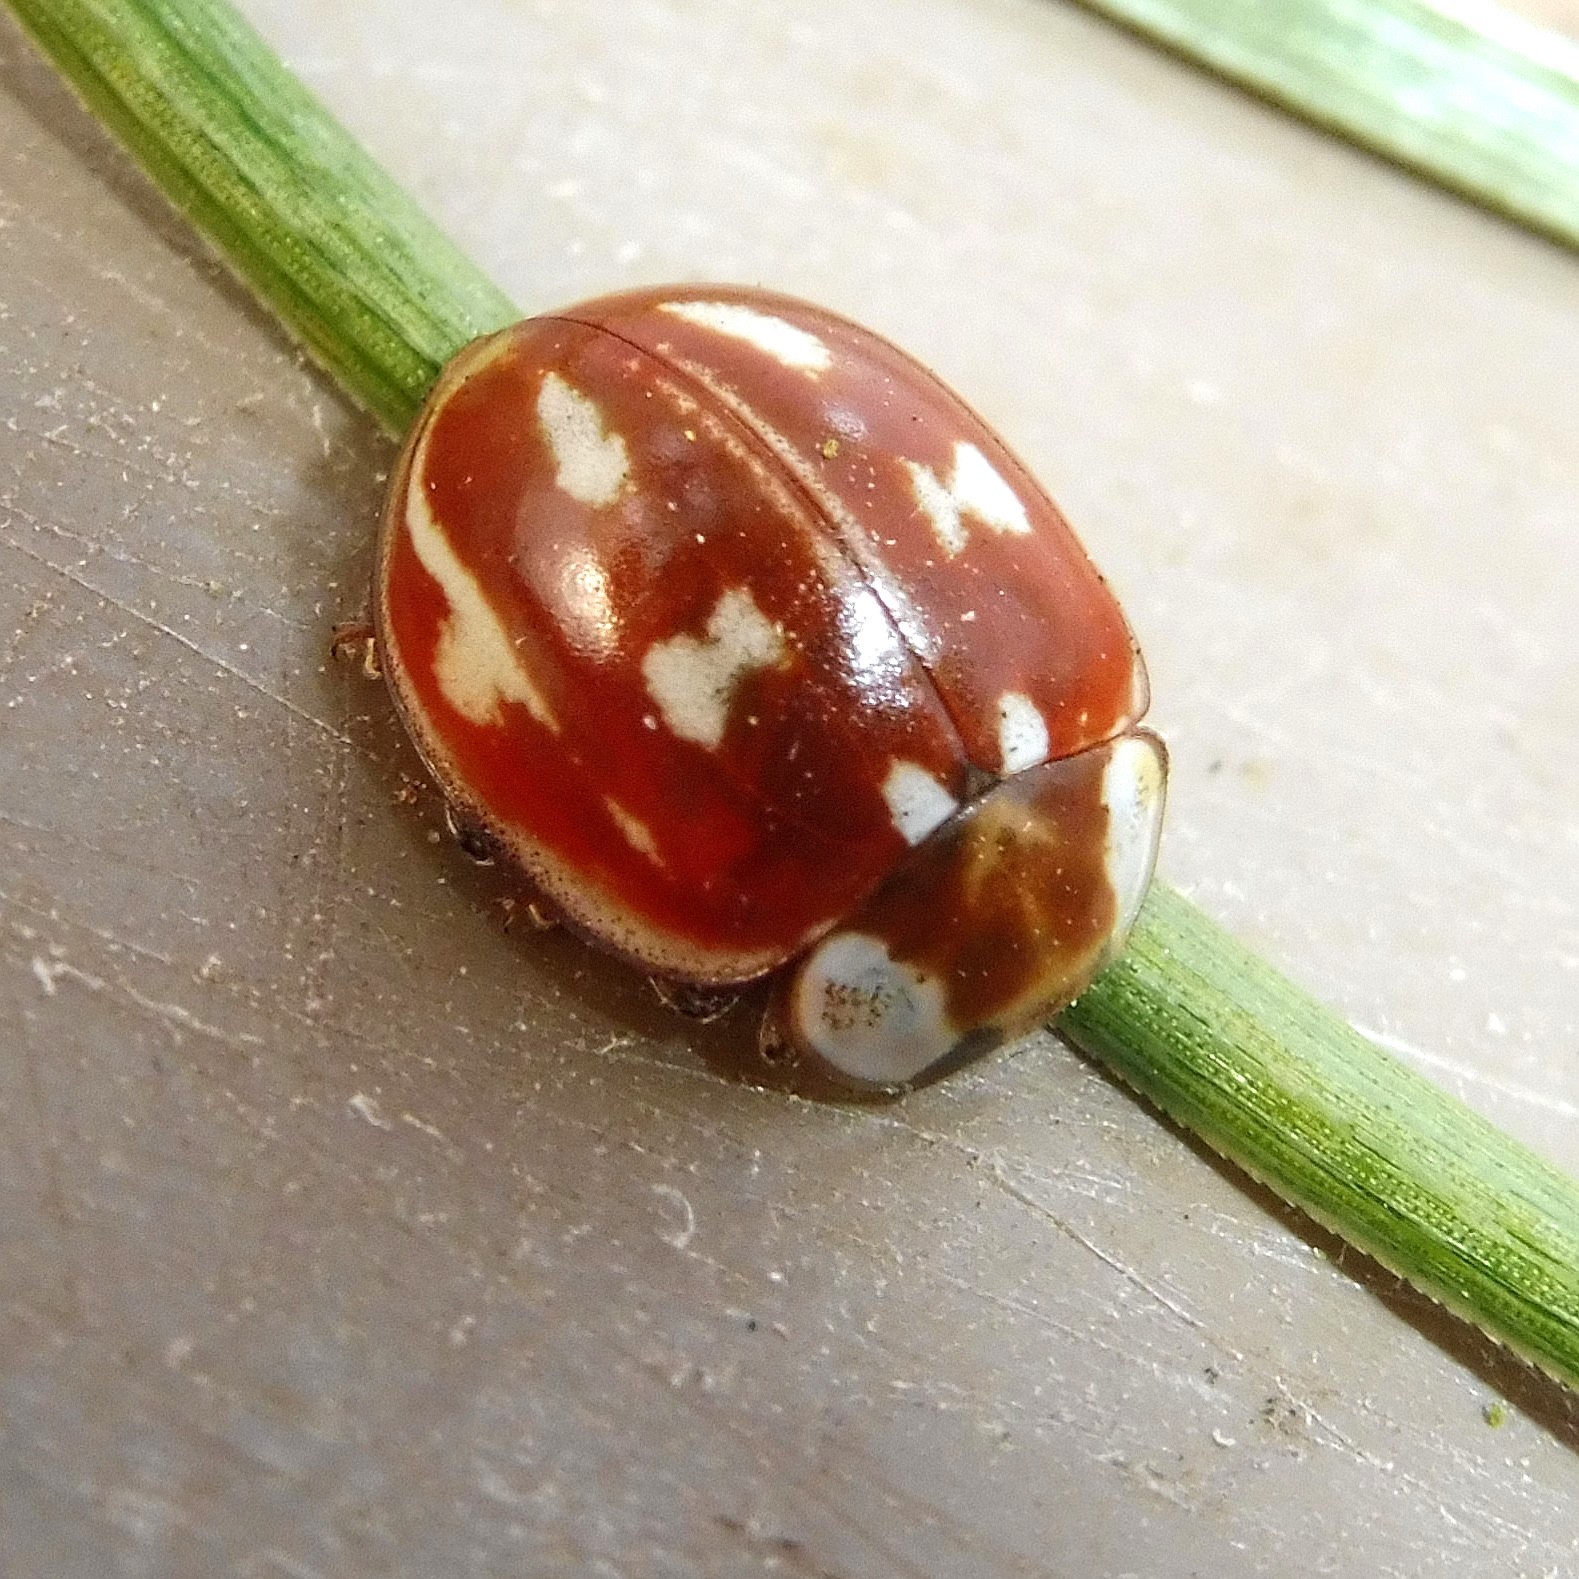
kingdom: Animalia
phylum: Arthropoda
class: Insecta
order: Coleoptera
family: Coccinellidae
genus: Myzia
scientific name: Myzia oblongoguttata
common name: Striped ladybird
